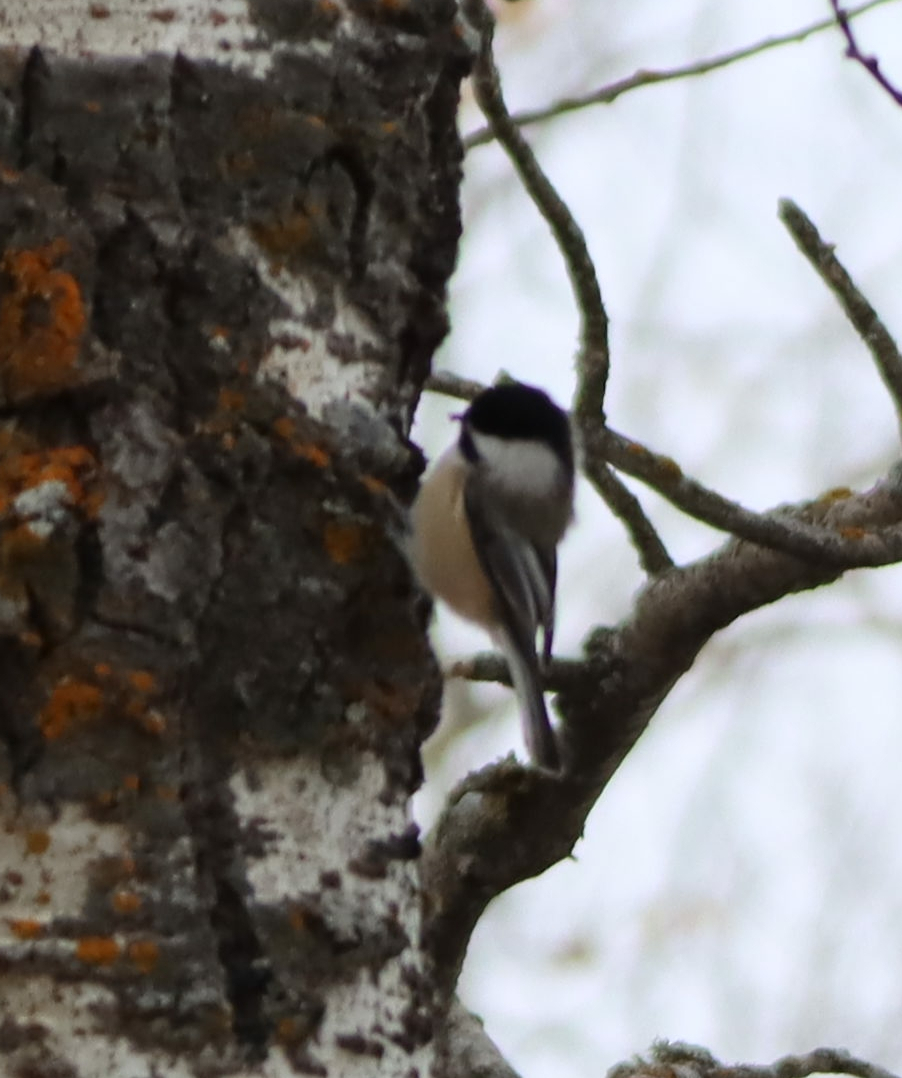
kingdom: Animalia
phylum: Chordata
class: Aves
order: Passeriformes
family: Paridae
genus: Poecile
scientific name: Poecile atricapillus
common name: Black-capped chickadee
